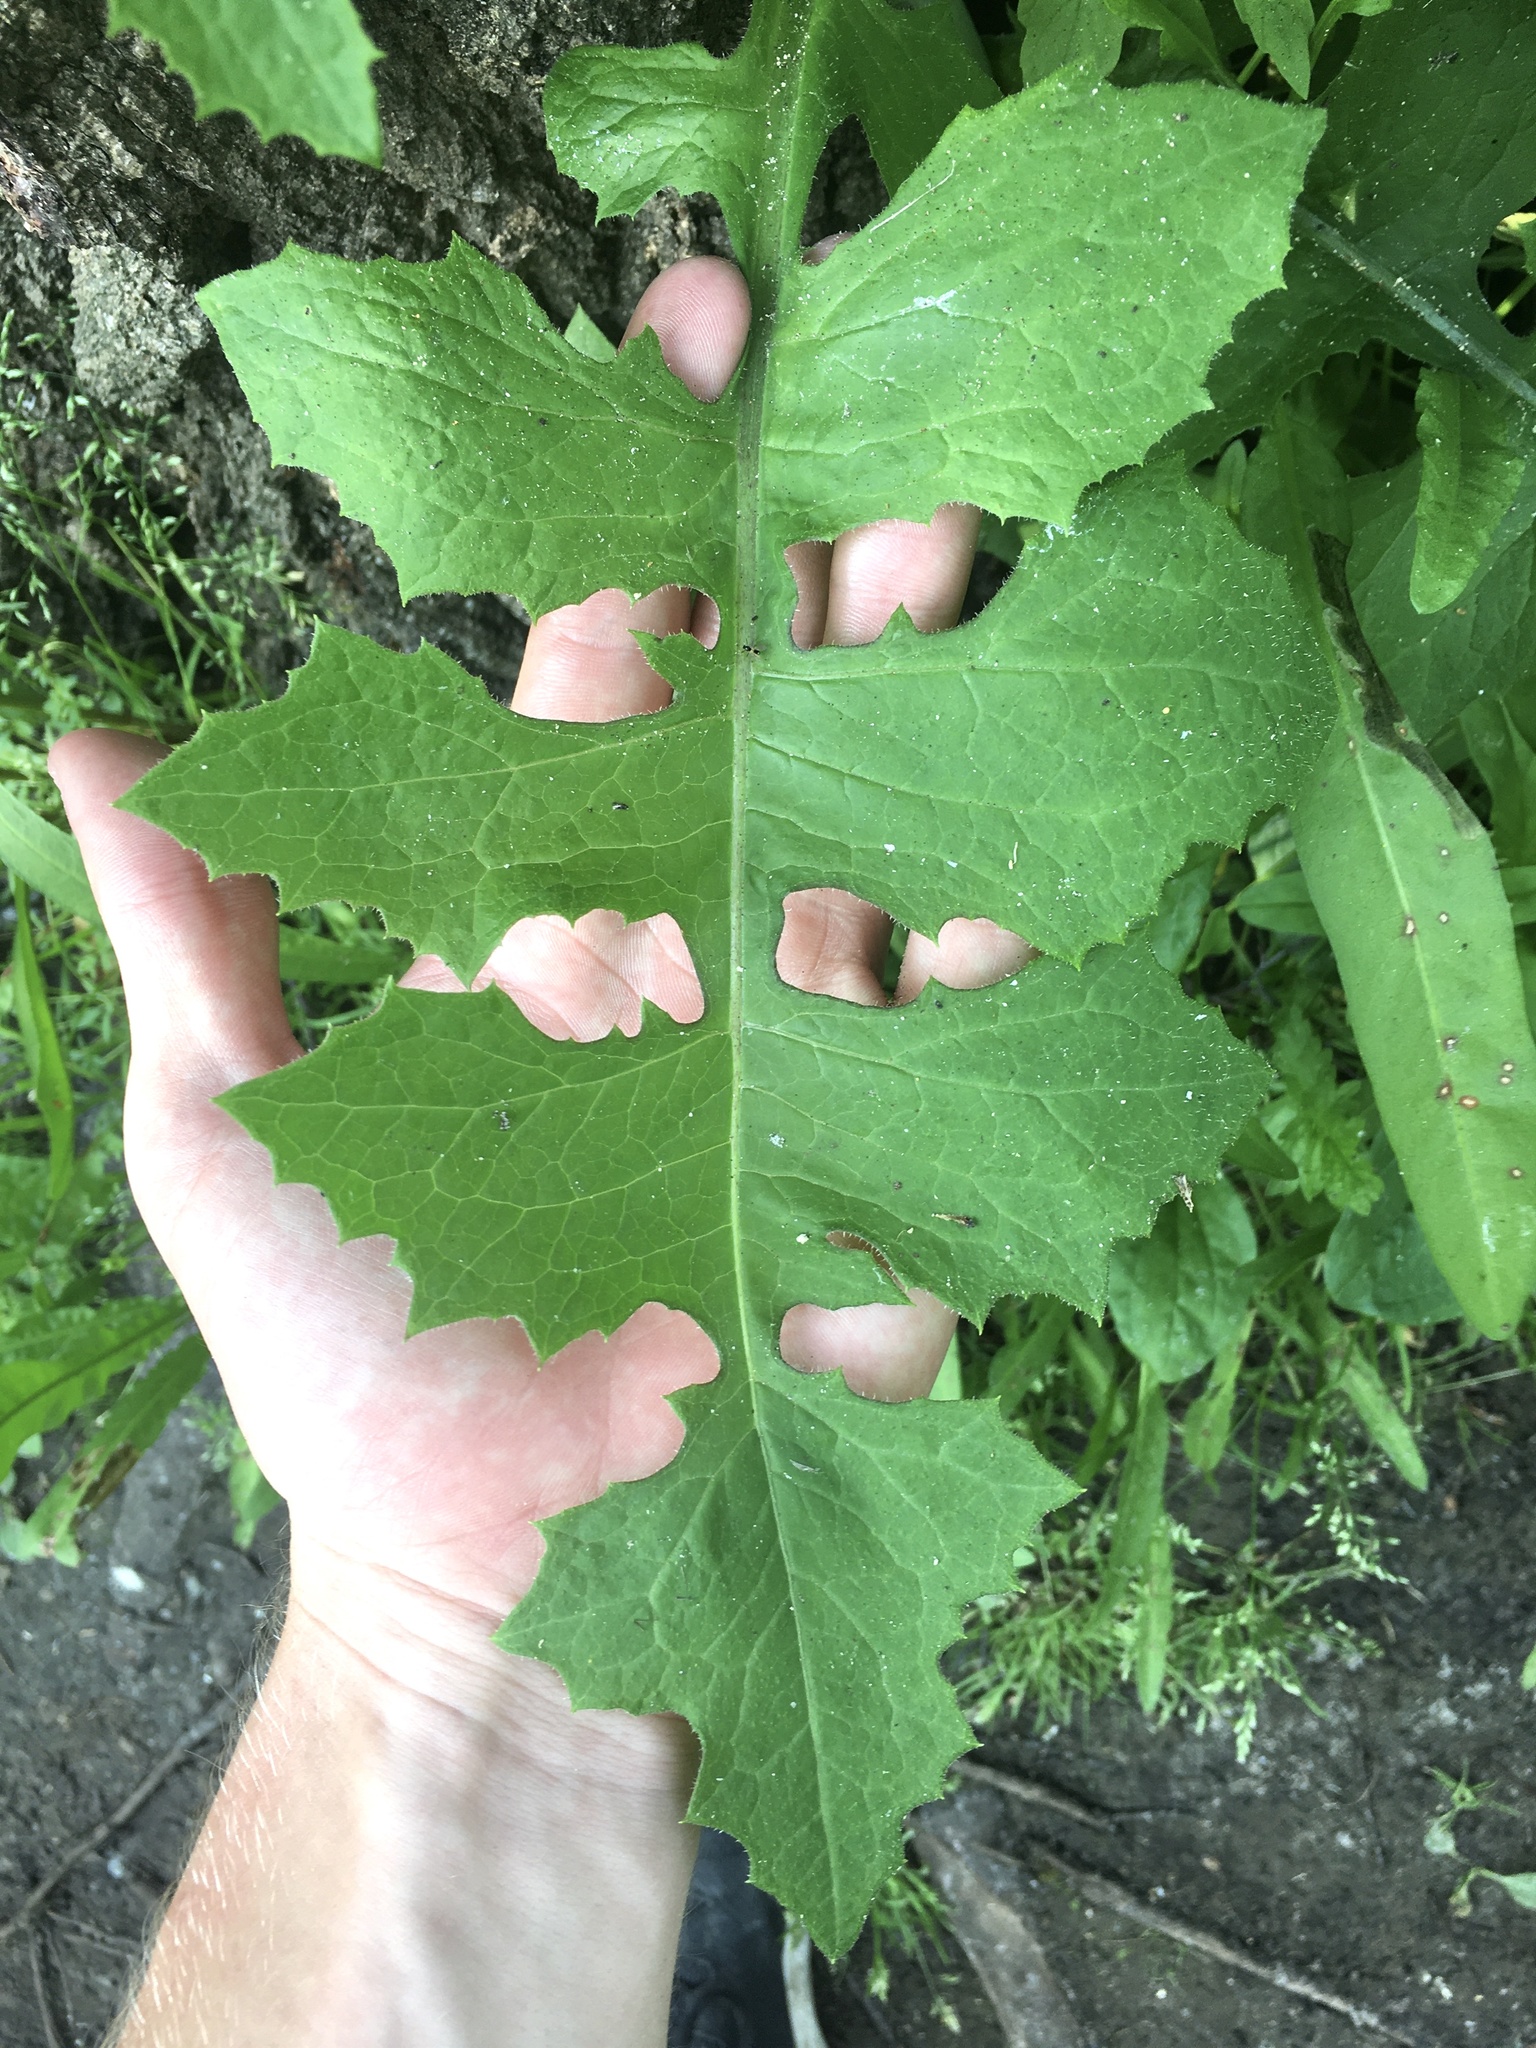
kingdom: Plantae
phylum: Tracheophyta
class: Magnoliopsida
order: Asterales
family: Asteraceae
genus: Lactuca
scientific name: Lactuca biennis
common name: Blue wood lettuce
